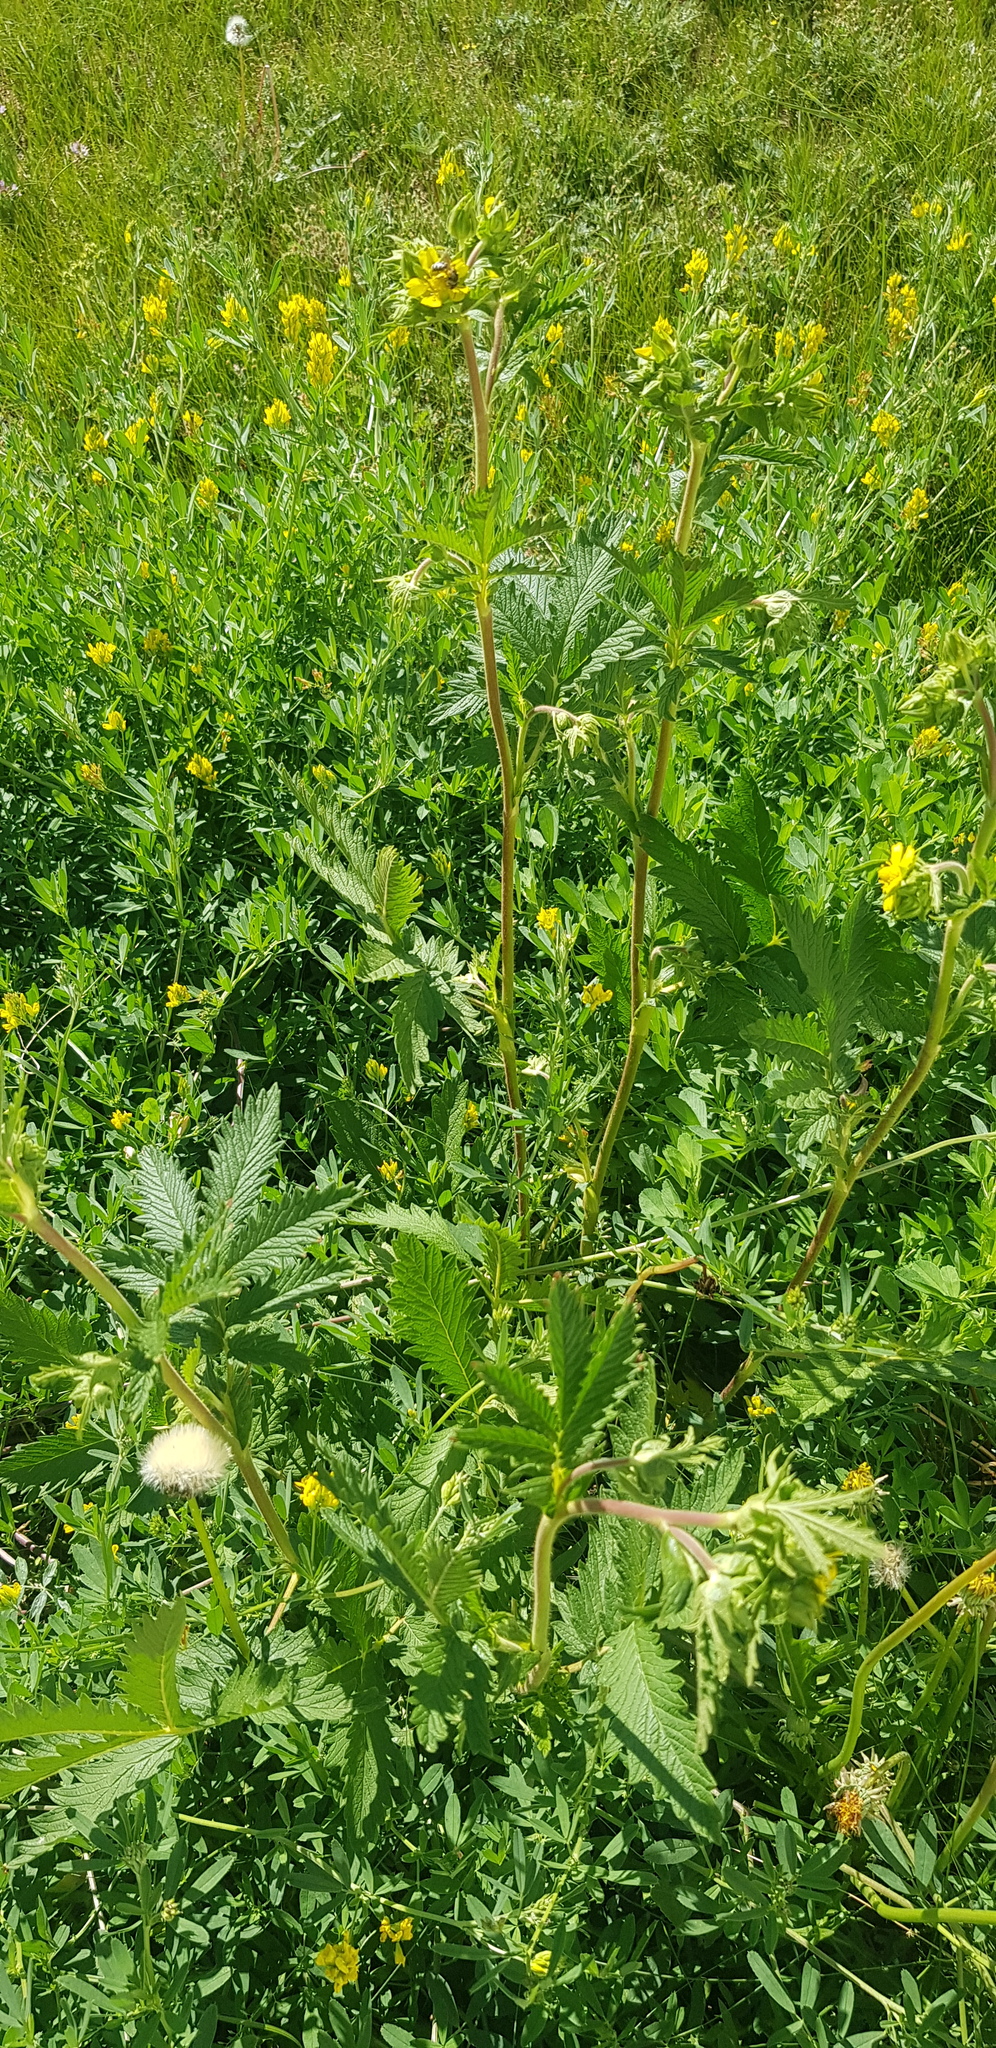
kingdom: Plantae
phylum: Tracheophyta
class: Magnoliopsida
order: Rosales
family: Rosaceae
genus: Potentilla
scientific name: Potentilla tanacetifolia
